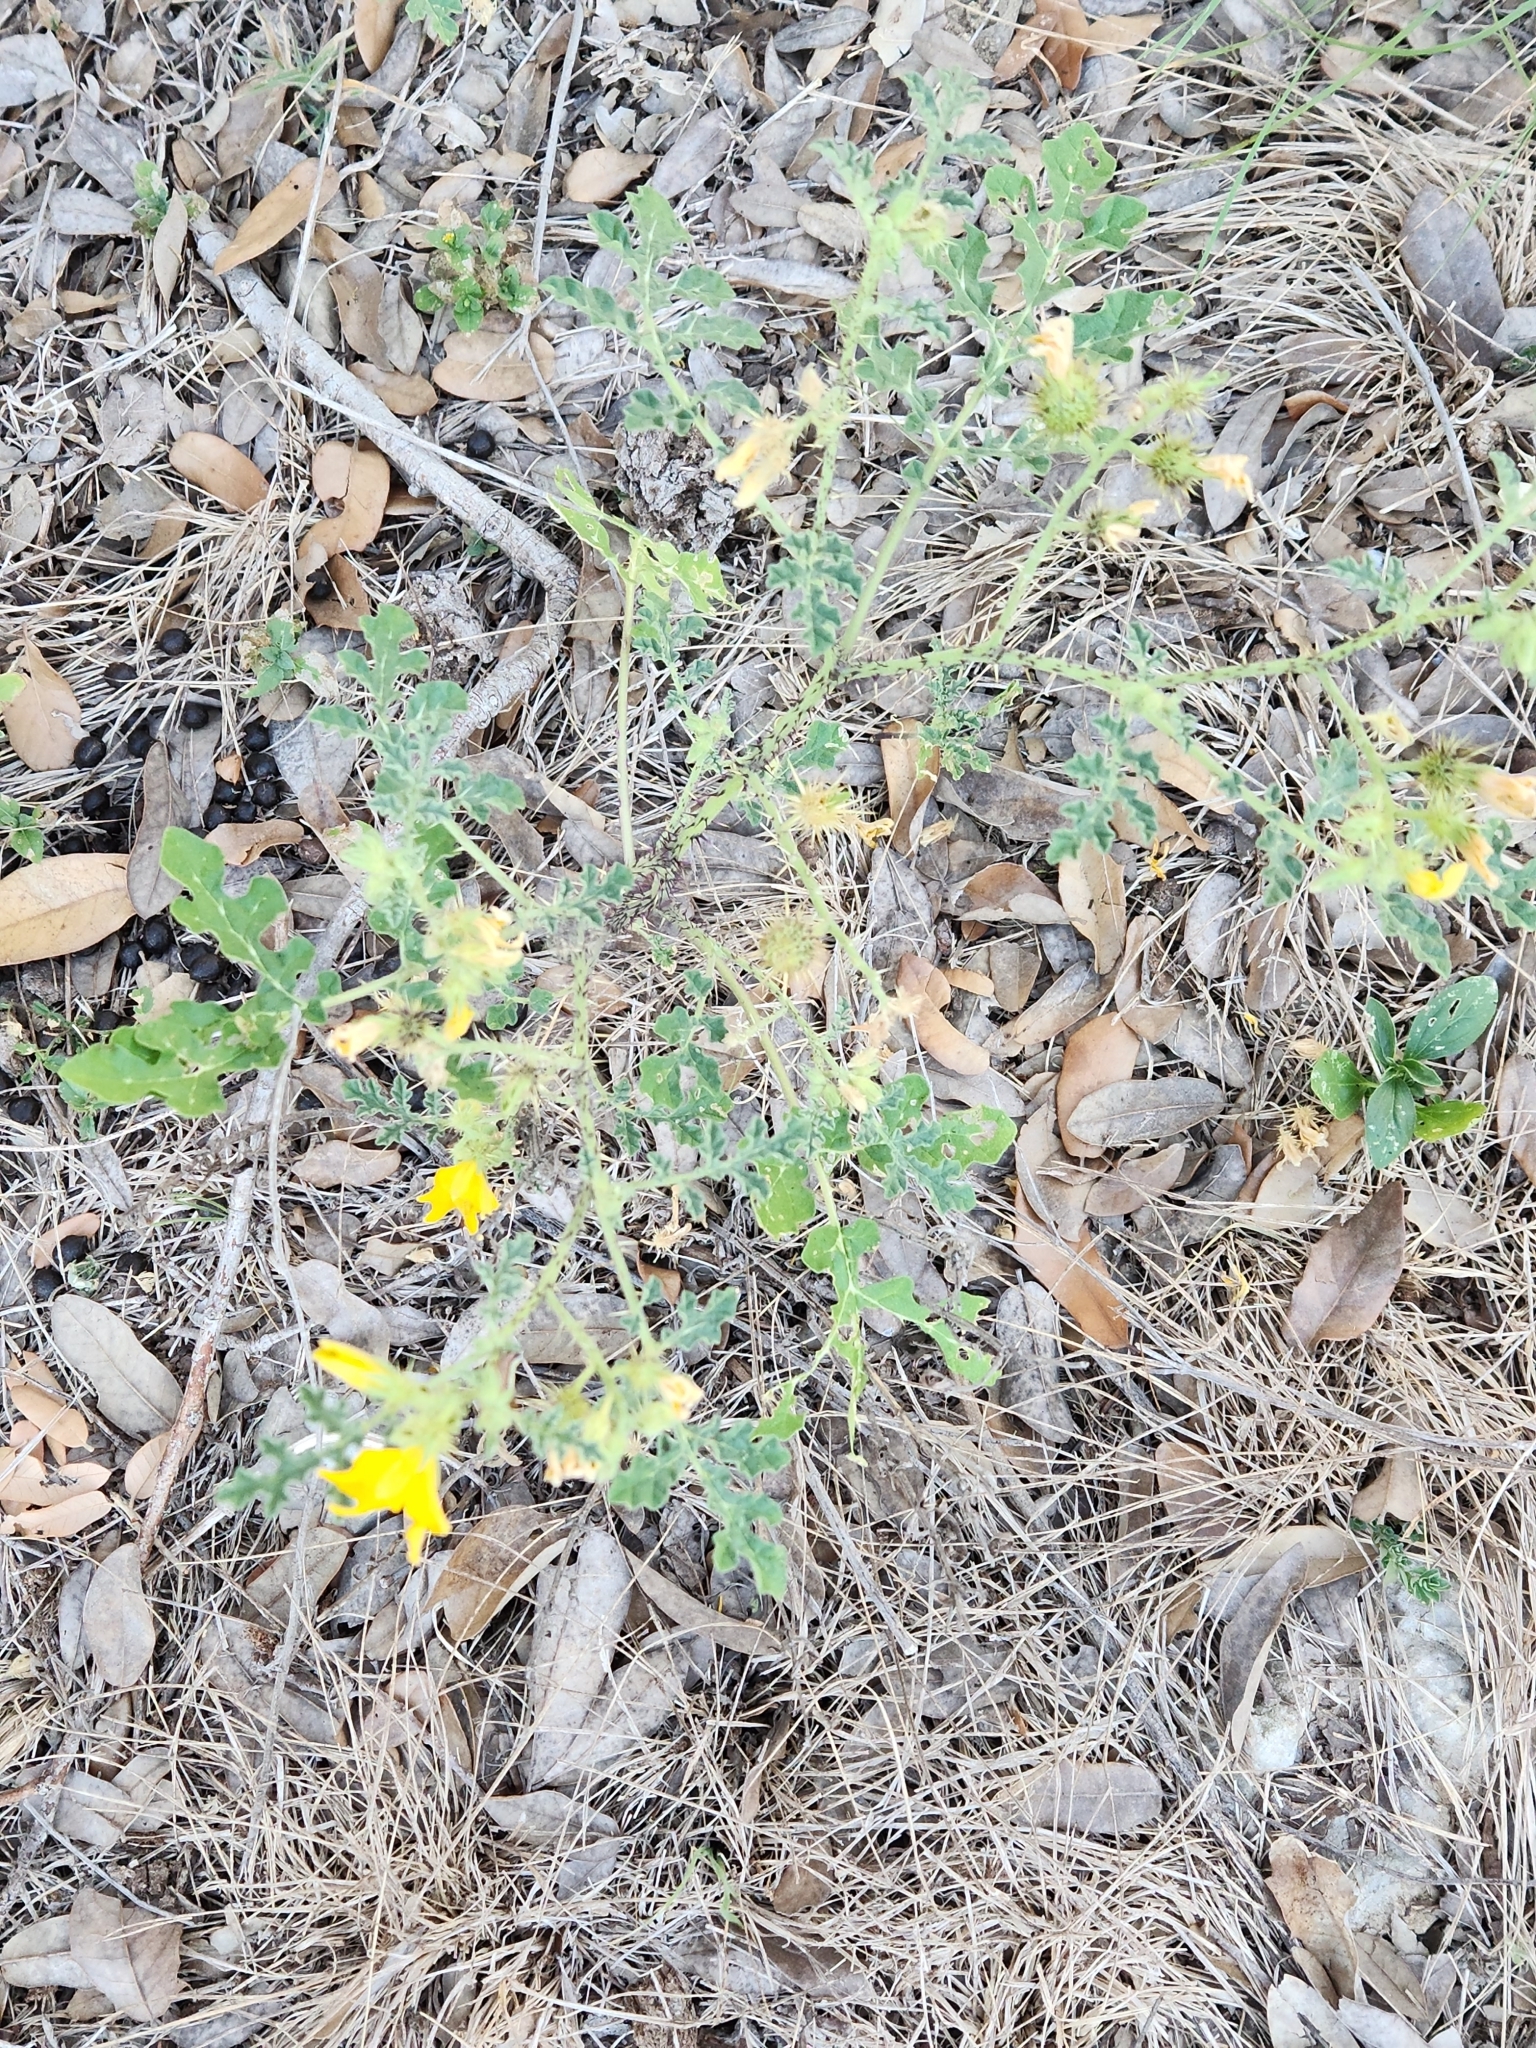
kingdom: Plantae
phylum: Tracheophyta
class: Magnoliopsida
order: Solanales
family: Solanaceae
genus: Solanum
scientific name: Solanum angustifolium
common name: Buffalobur nightshade
